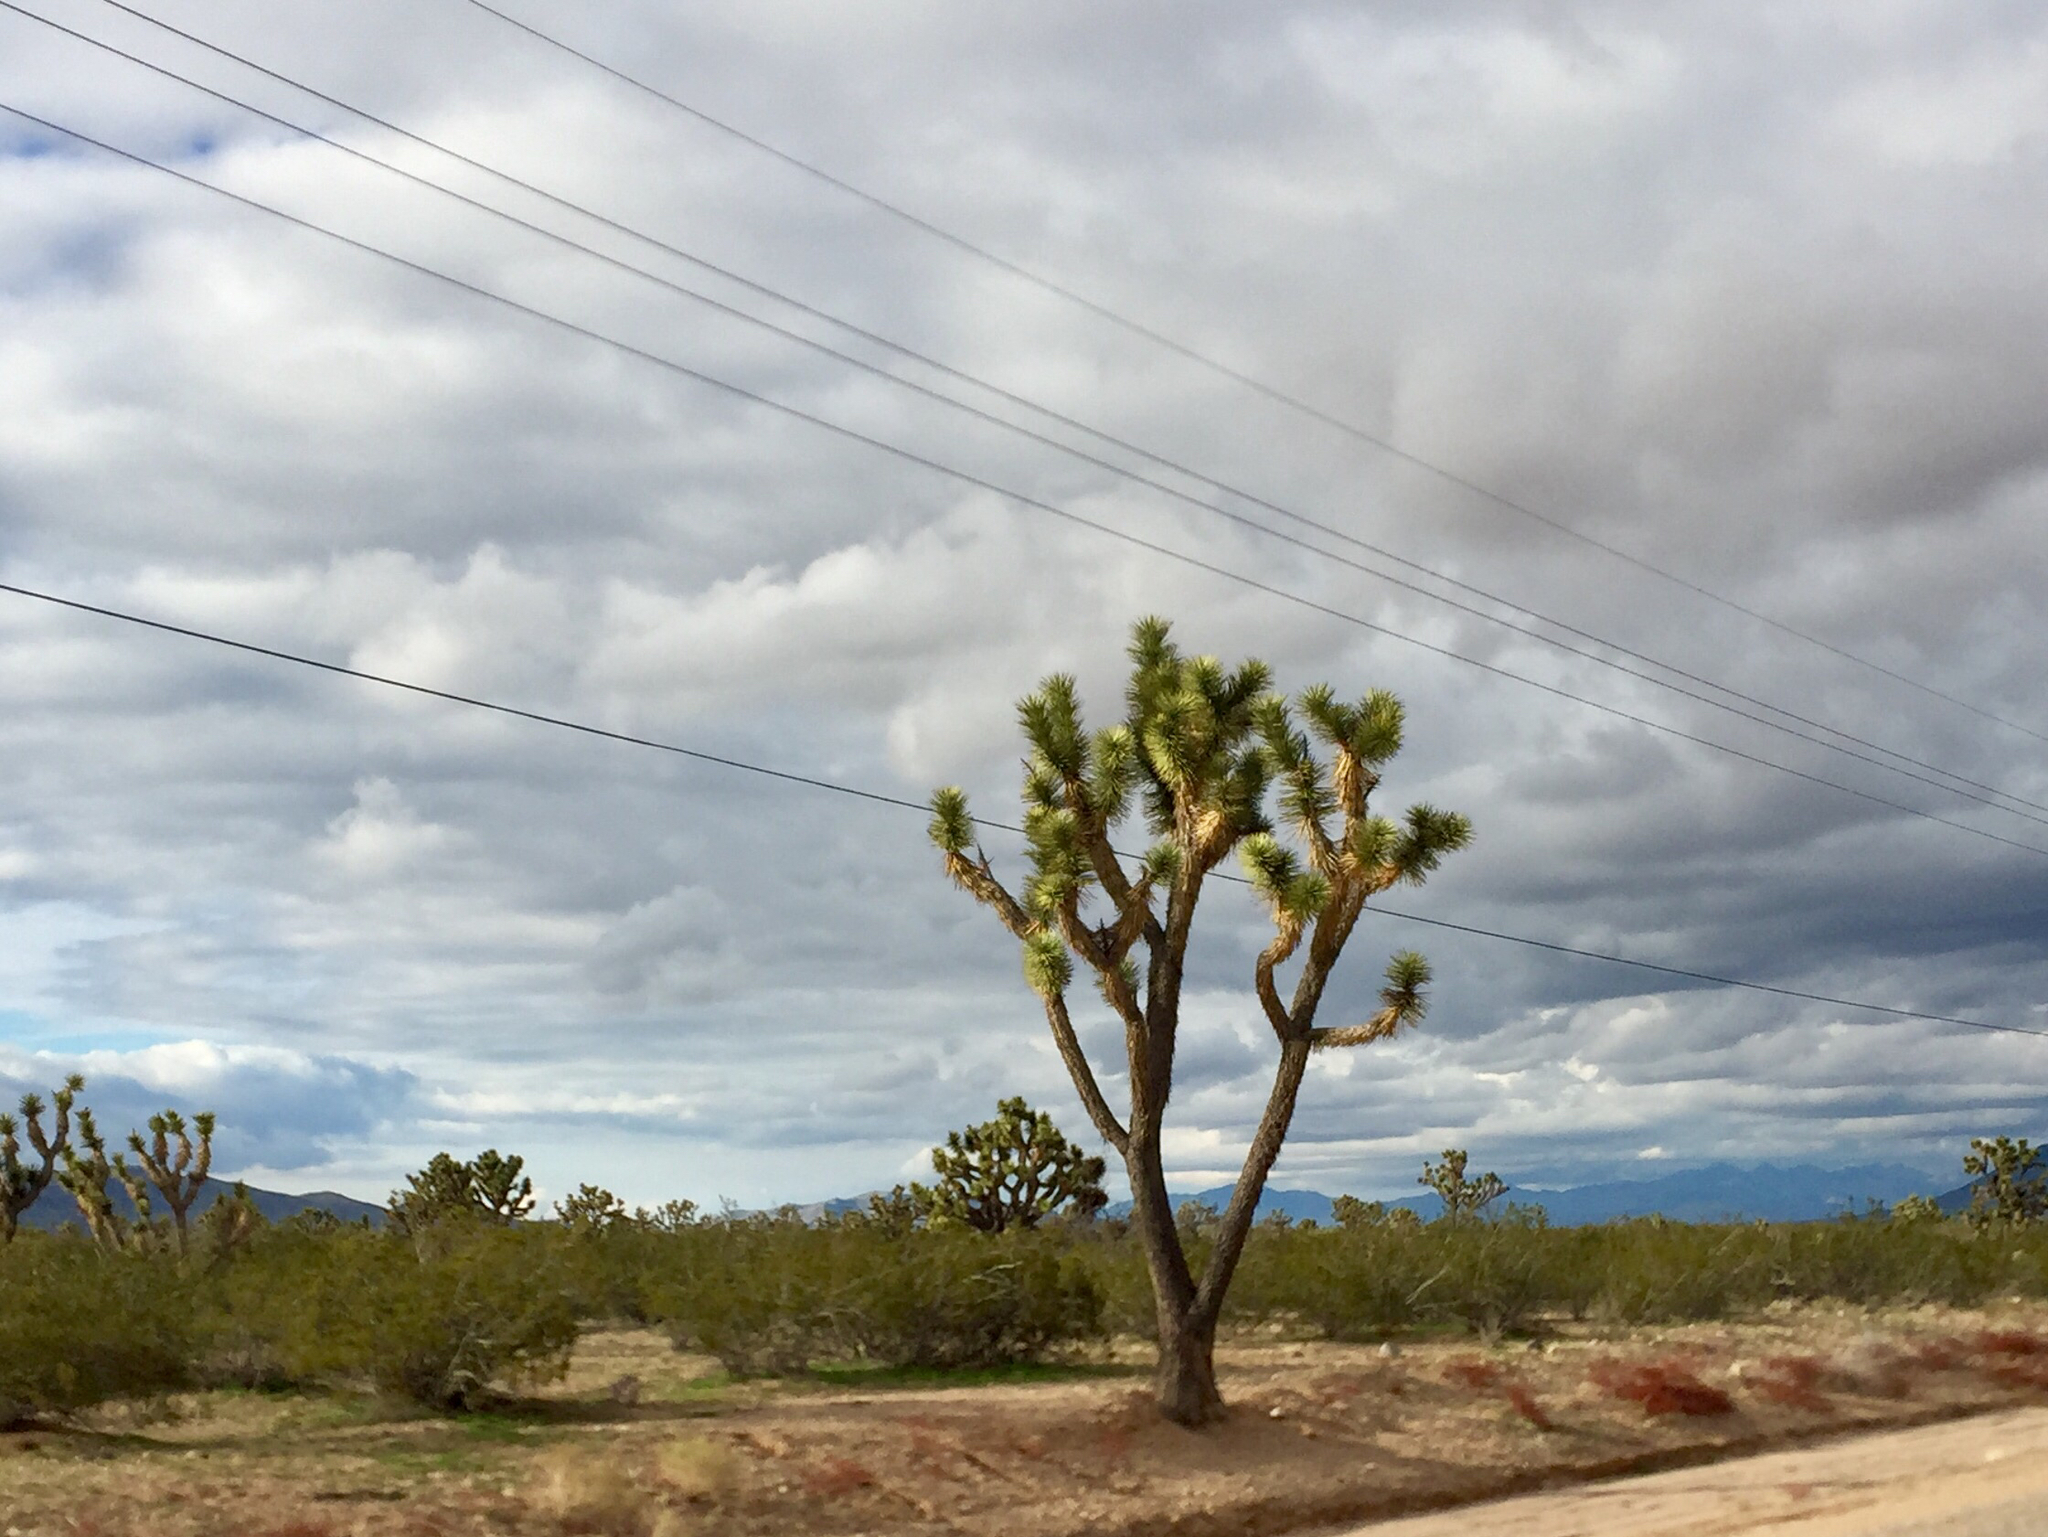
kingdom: Plantae
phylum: Tracheophyta
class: Liliopsida
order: Asparagales
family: Asparagaceae
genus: Yucca
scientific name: Yucca brevifolia
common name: Joshua tree
